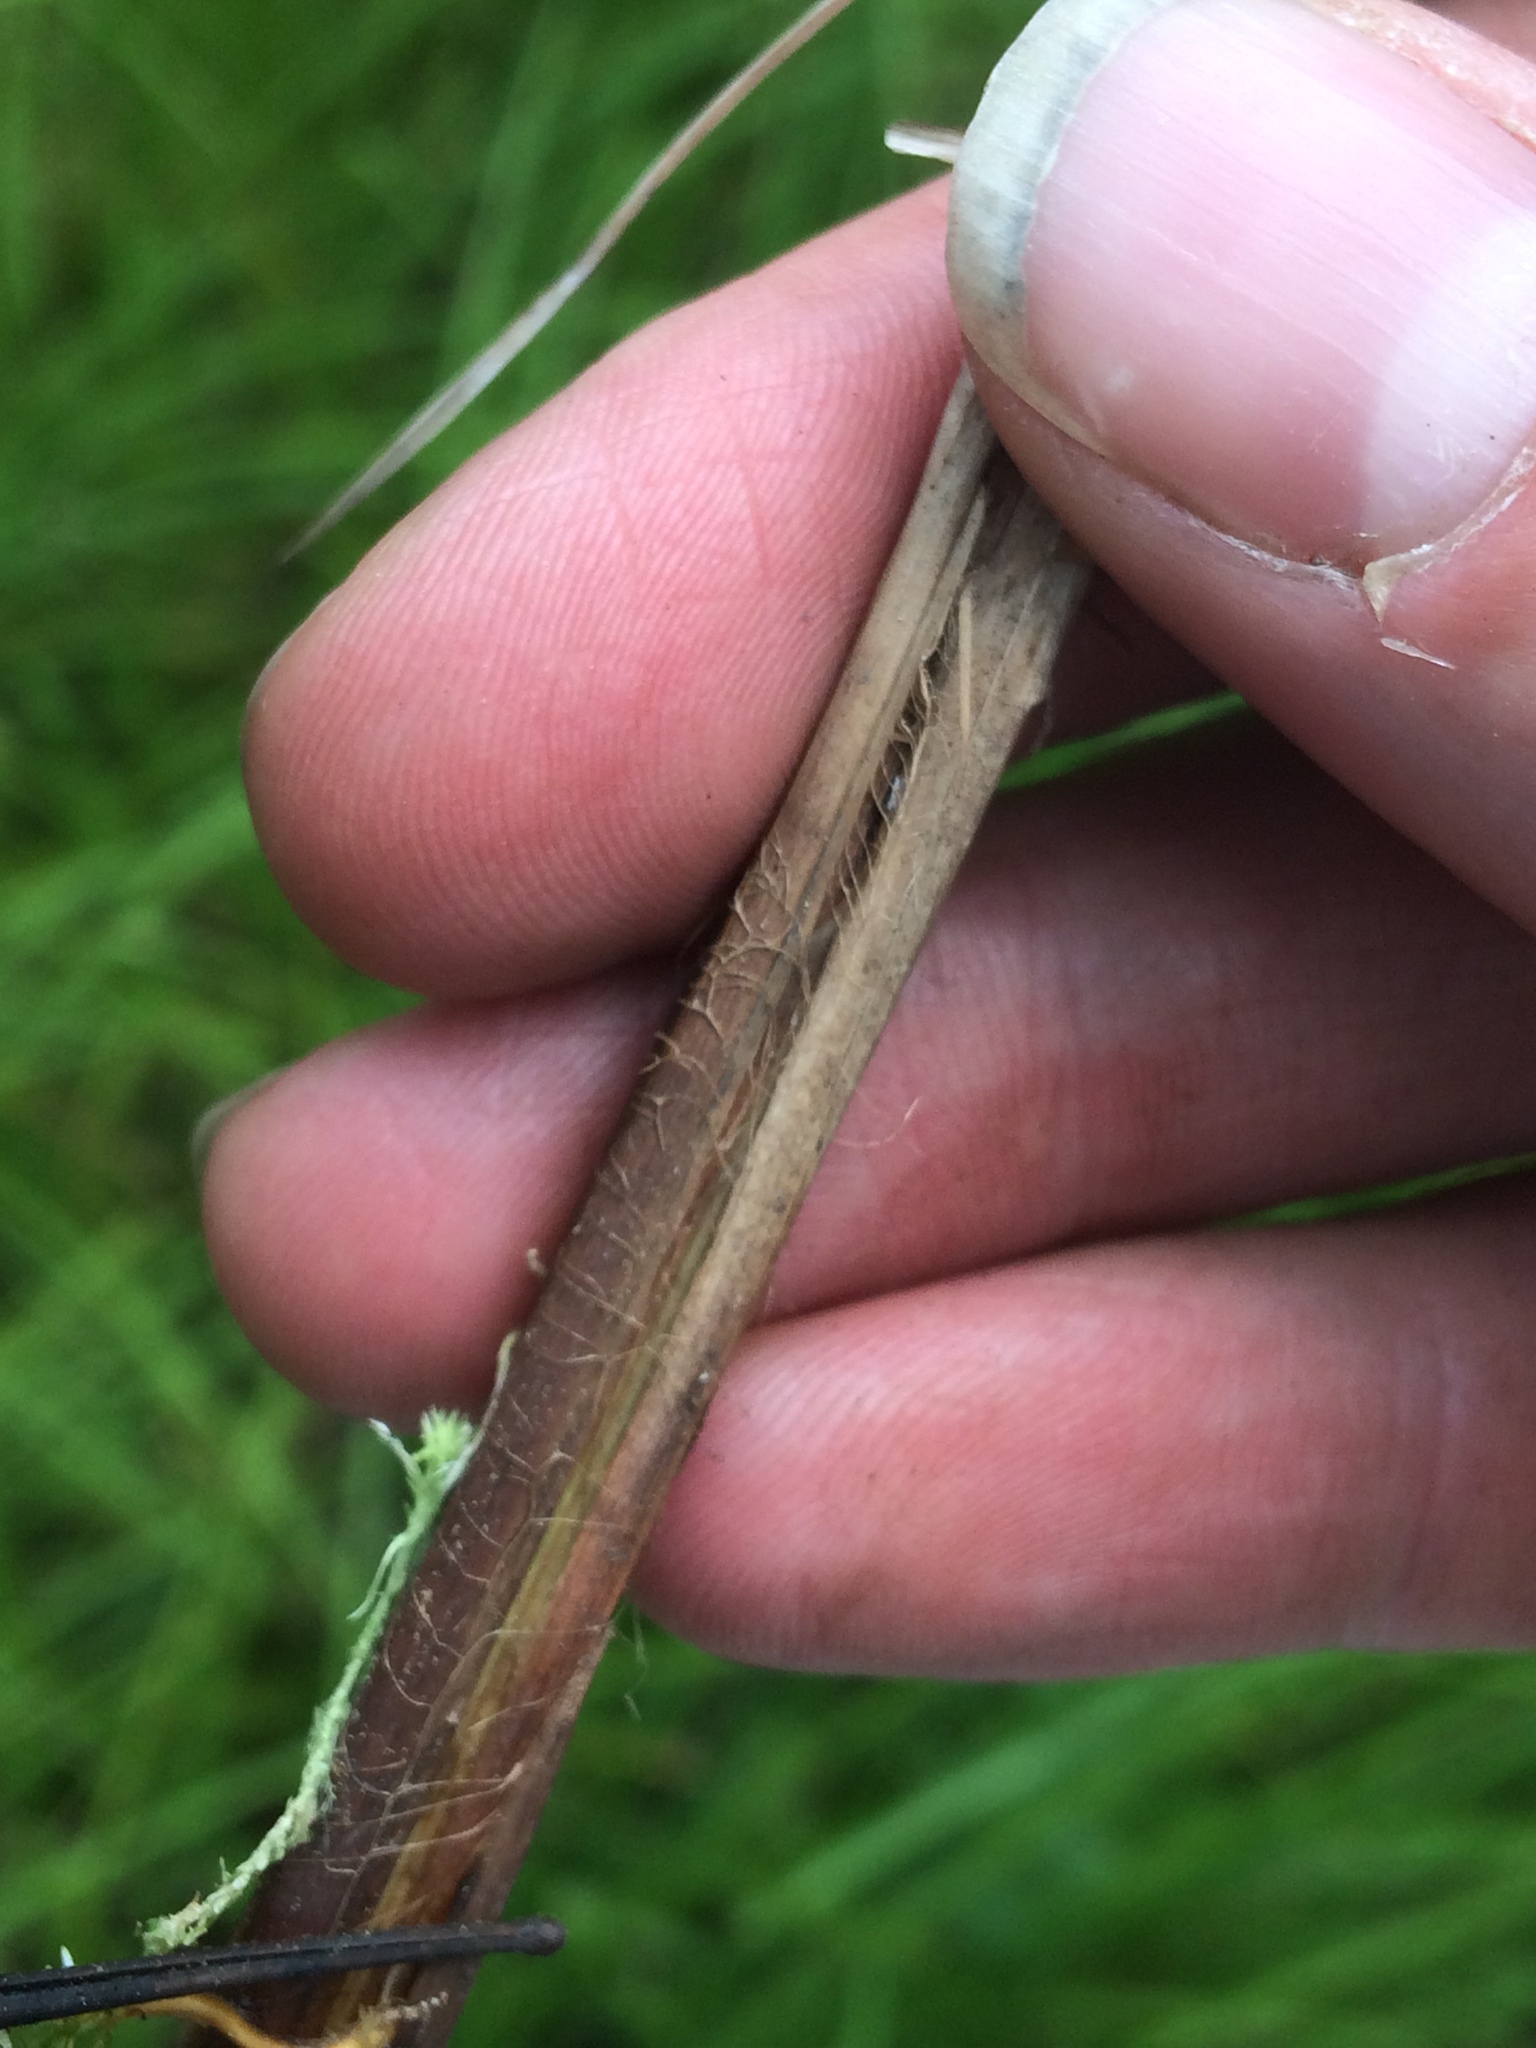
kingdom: Plantae
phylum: Tracheophyta
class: Liliopsida
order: Poales
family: Cyperaceae
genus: Carex
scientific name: Carex stricta
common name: Hummock sedge
